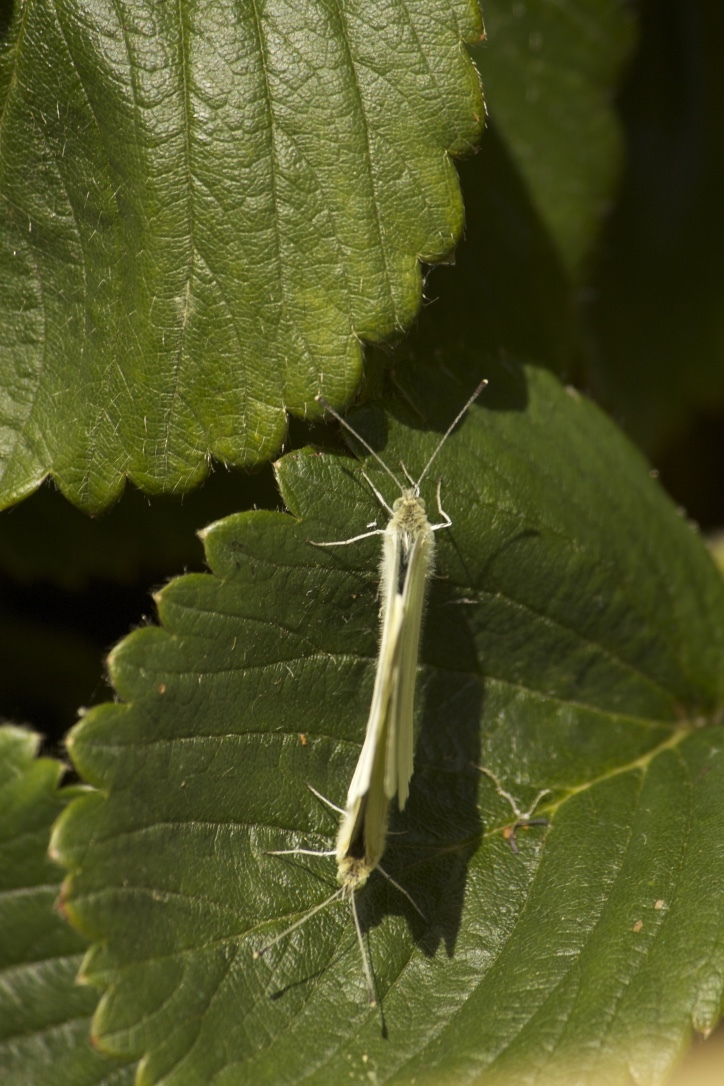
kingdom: Animalia
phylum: Arthropoda
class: Insecta
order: Lepidoptera
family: Pieridae
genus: Pieris
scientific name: Pieris rapae
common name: Small white
